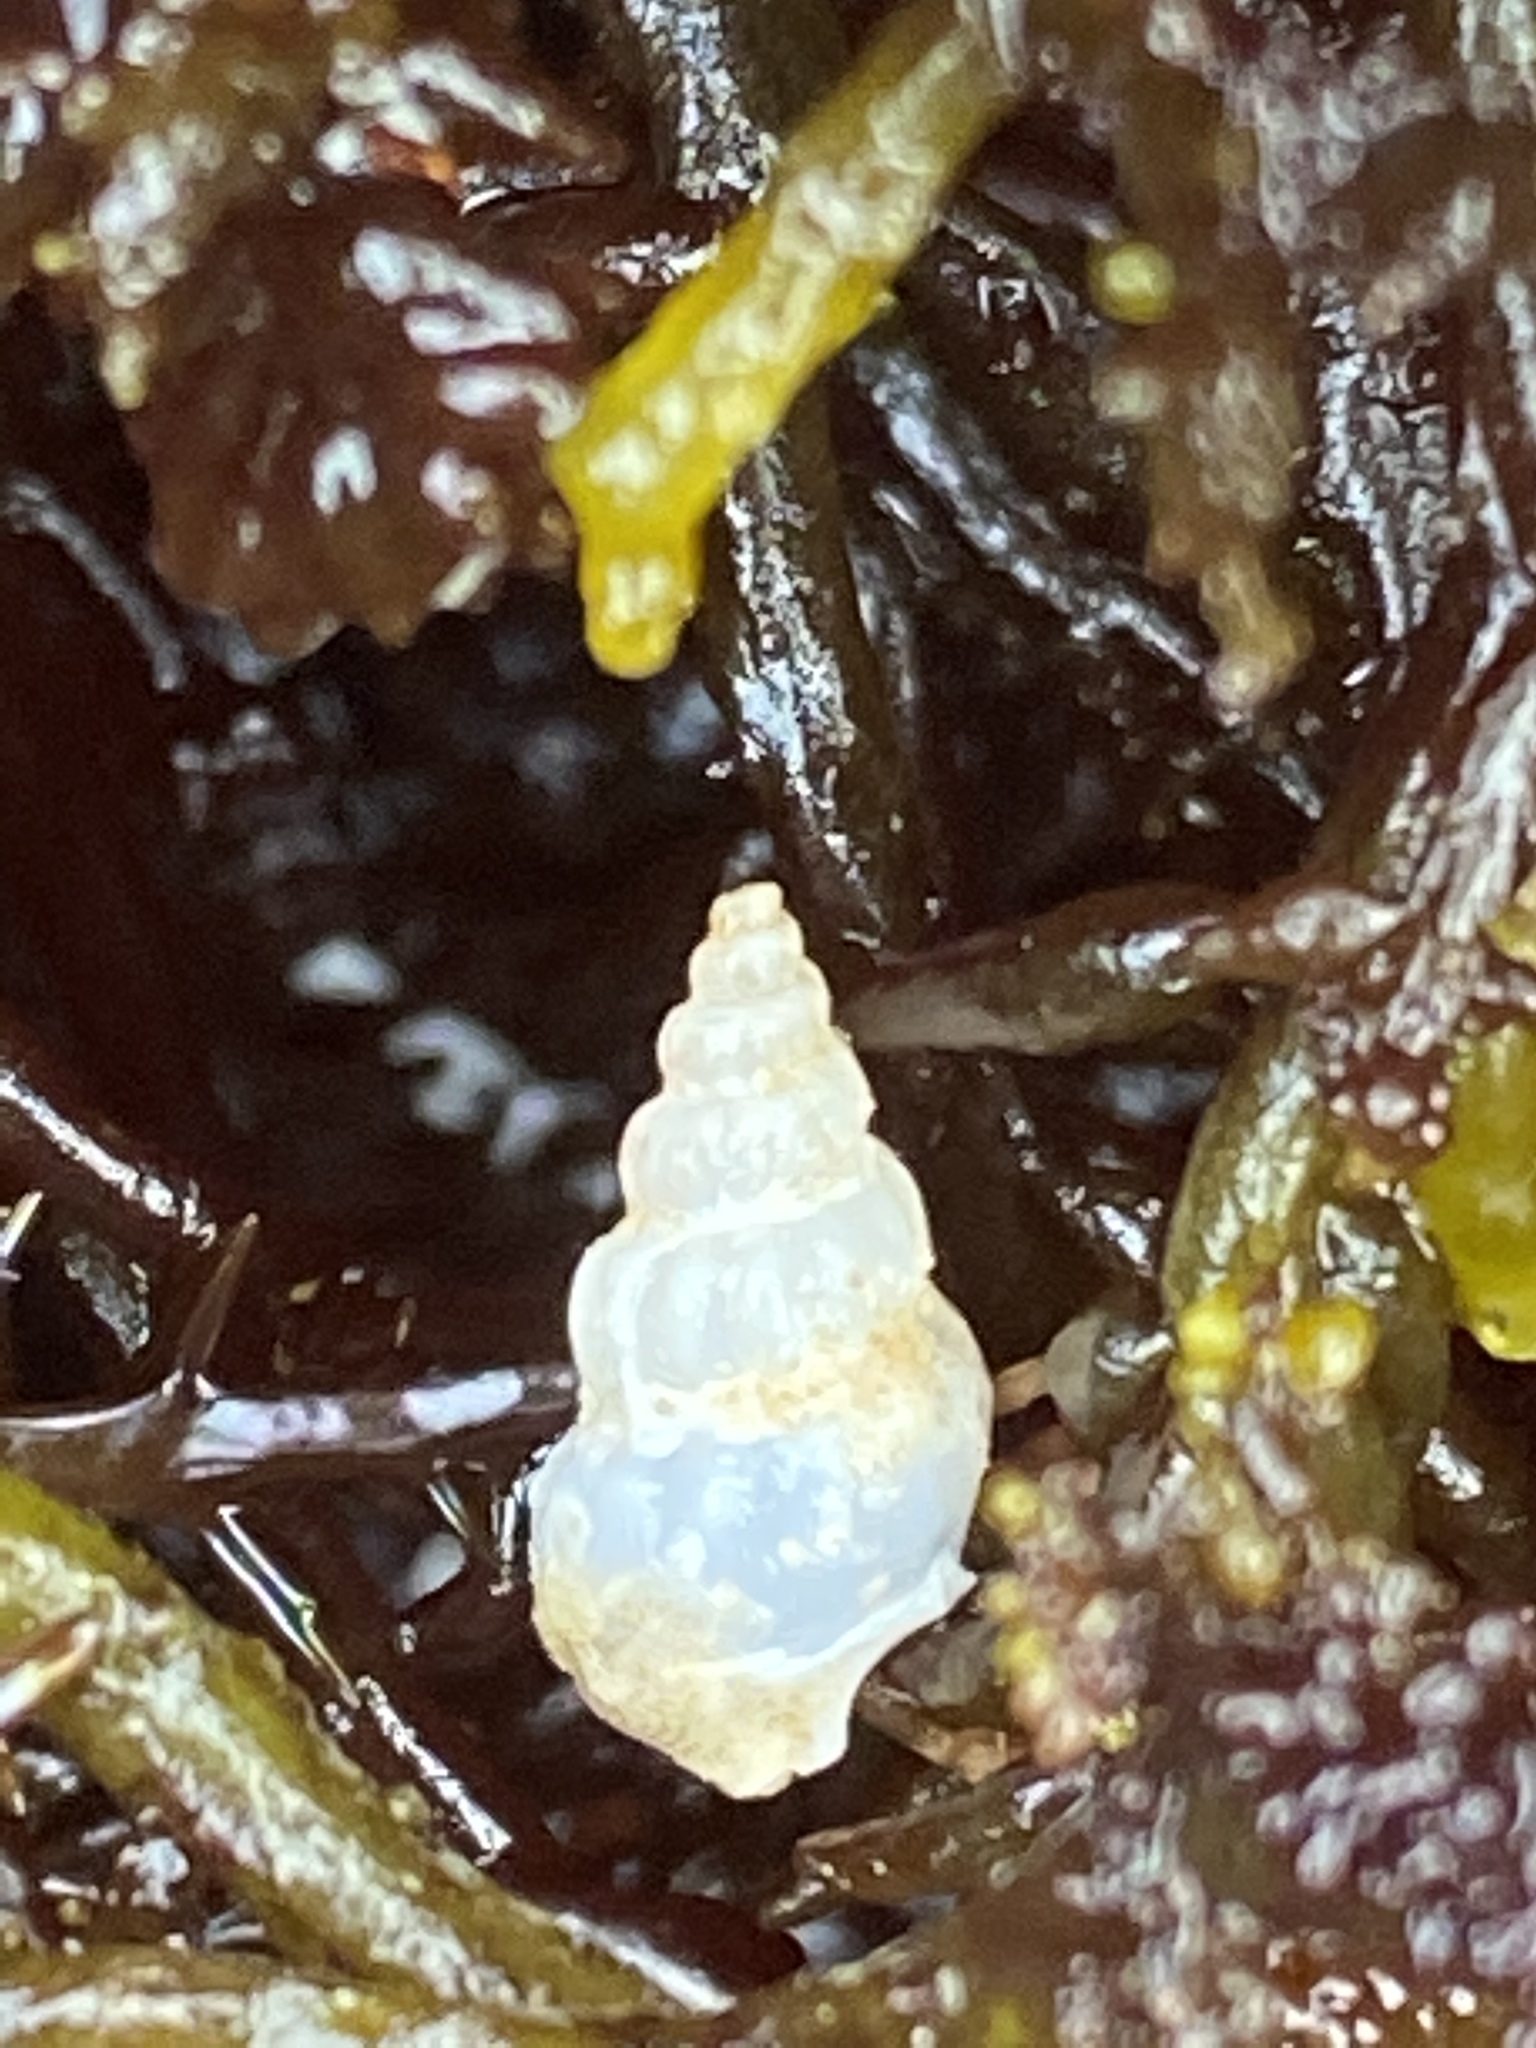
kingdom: Animalia
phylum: Mollusca
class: Gastropoda
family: Epitoniidae
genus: Opalia
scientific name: Opalia funiculata
